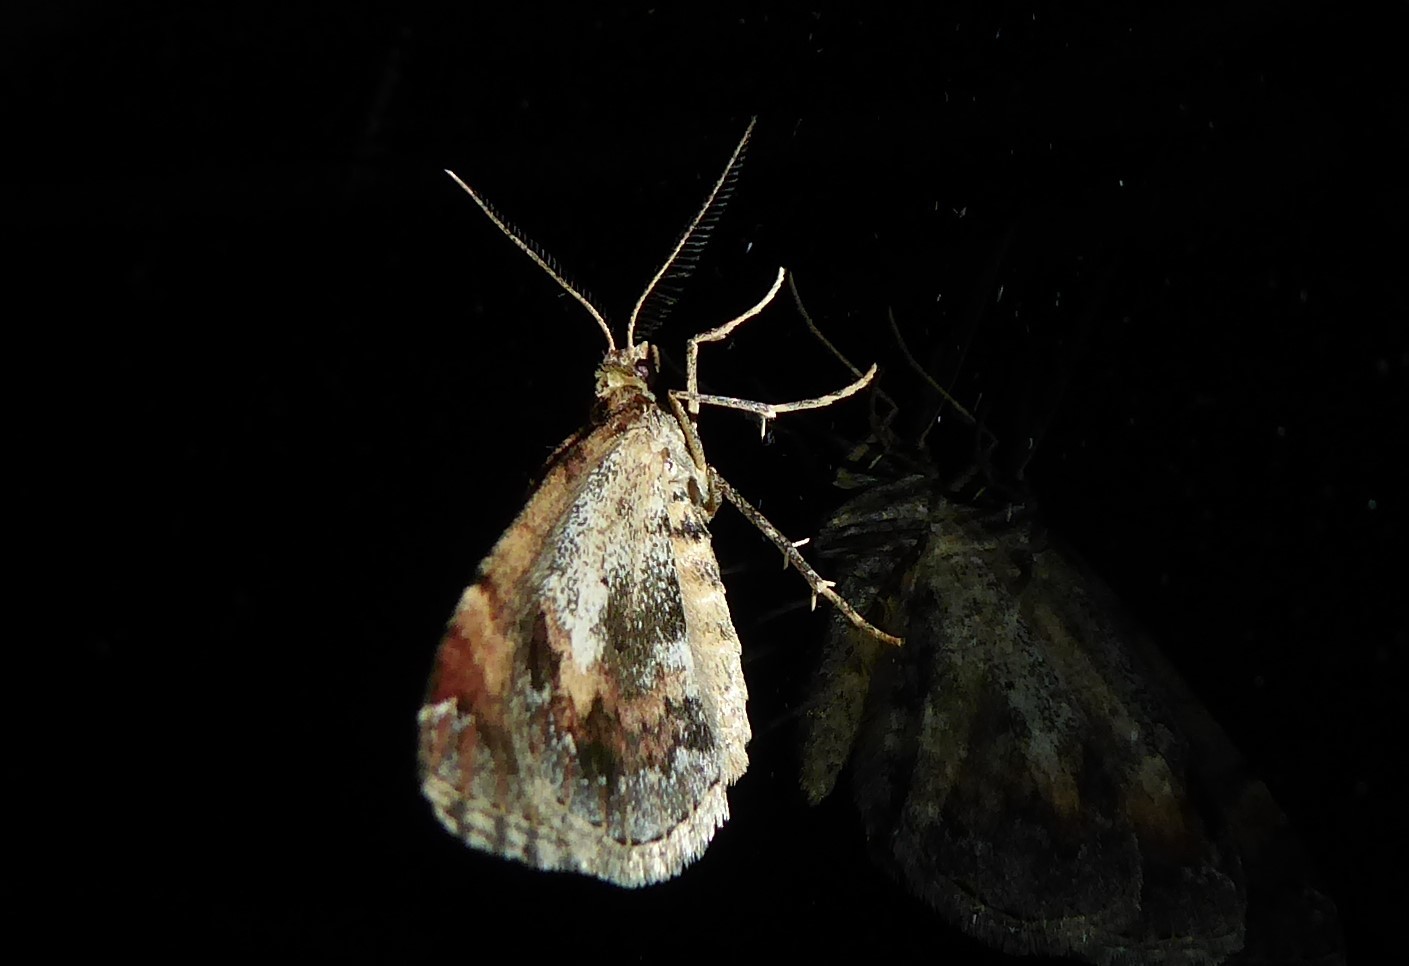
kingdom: Animalia
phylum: Arthropoda
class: Insecta
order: Lepidoptera
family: Geometridae
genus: Asaphodes
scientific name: Asaphodes aegrota
